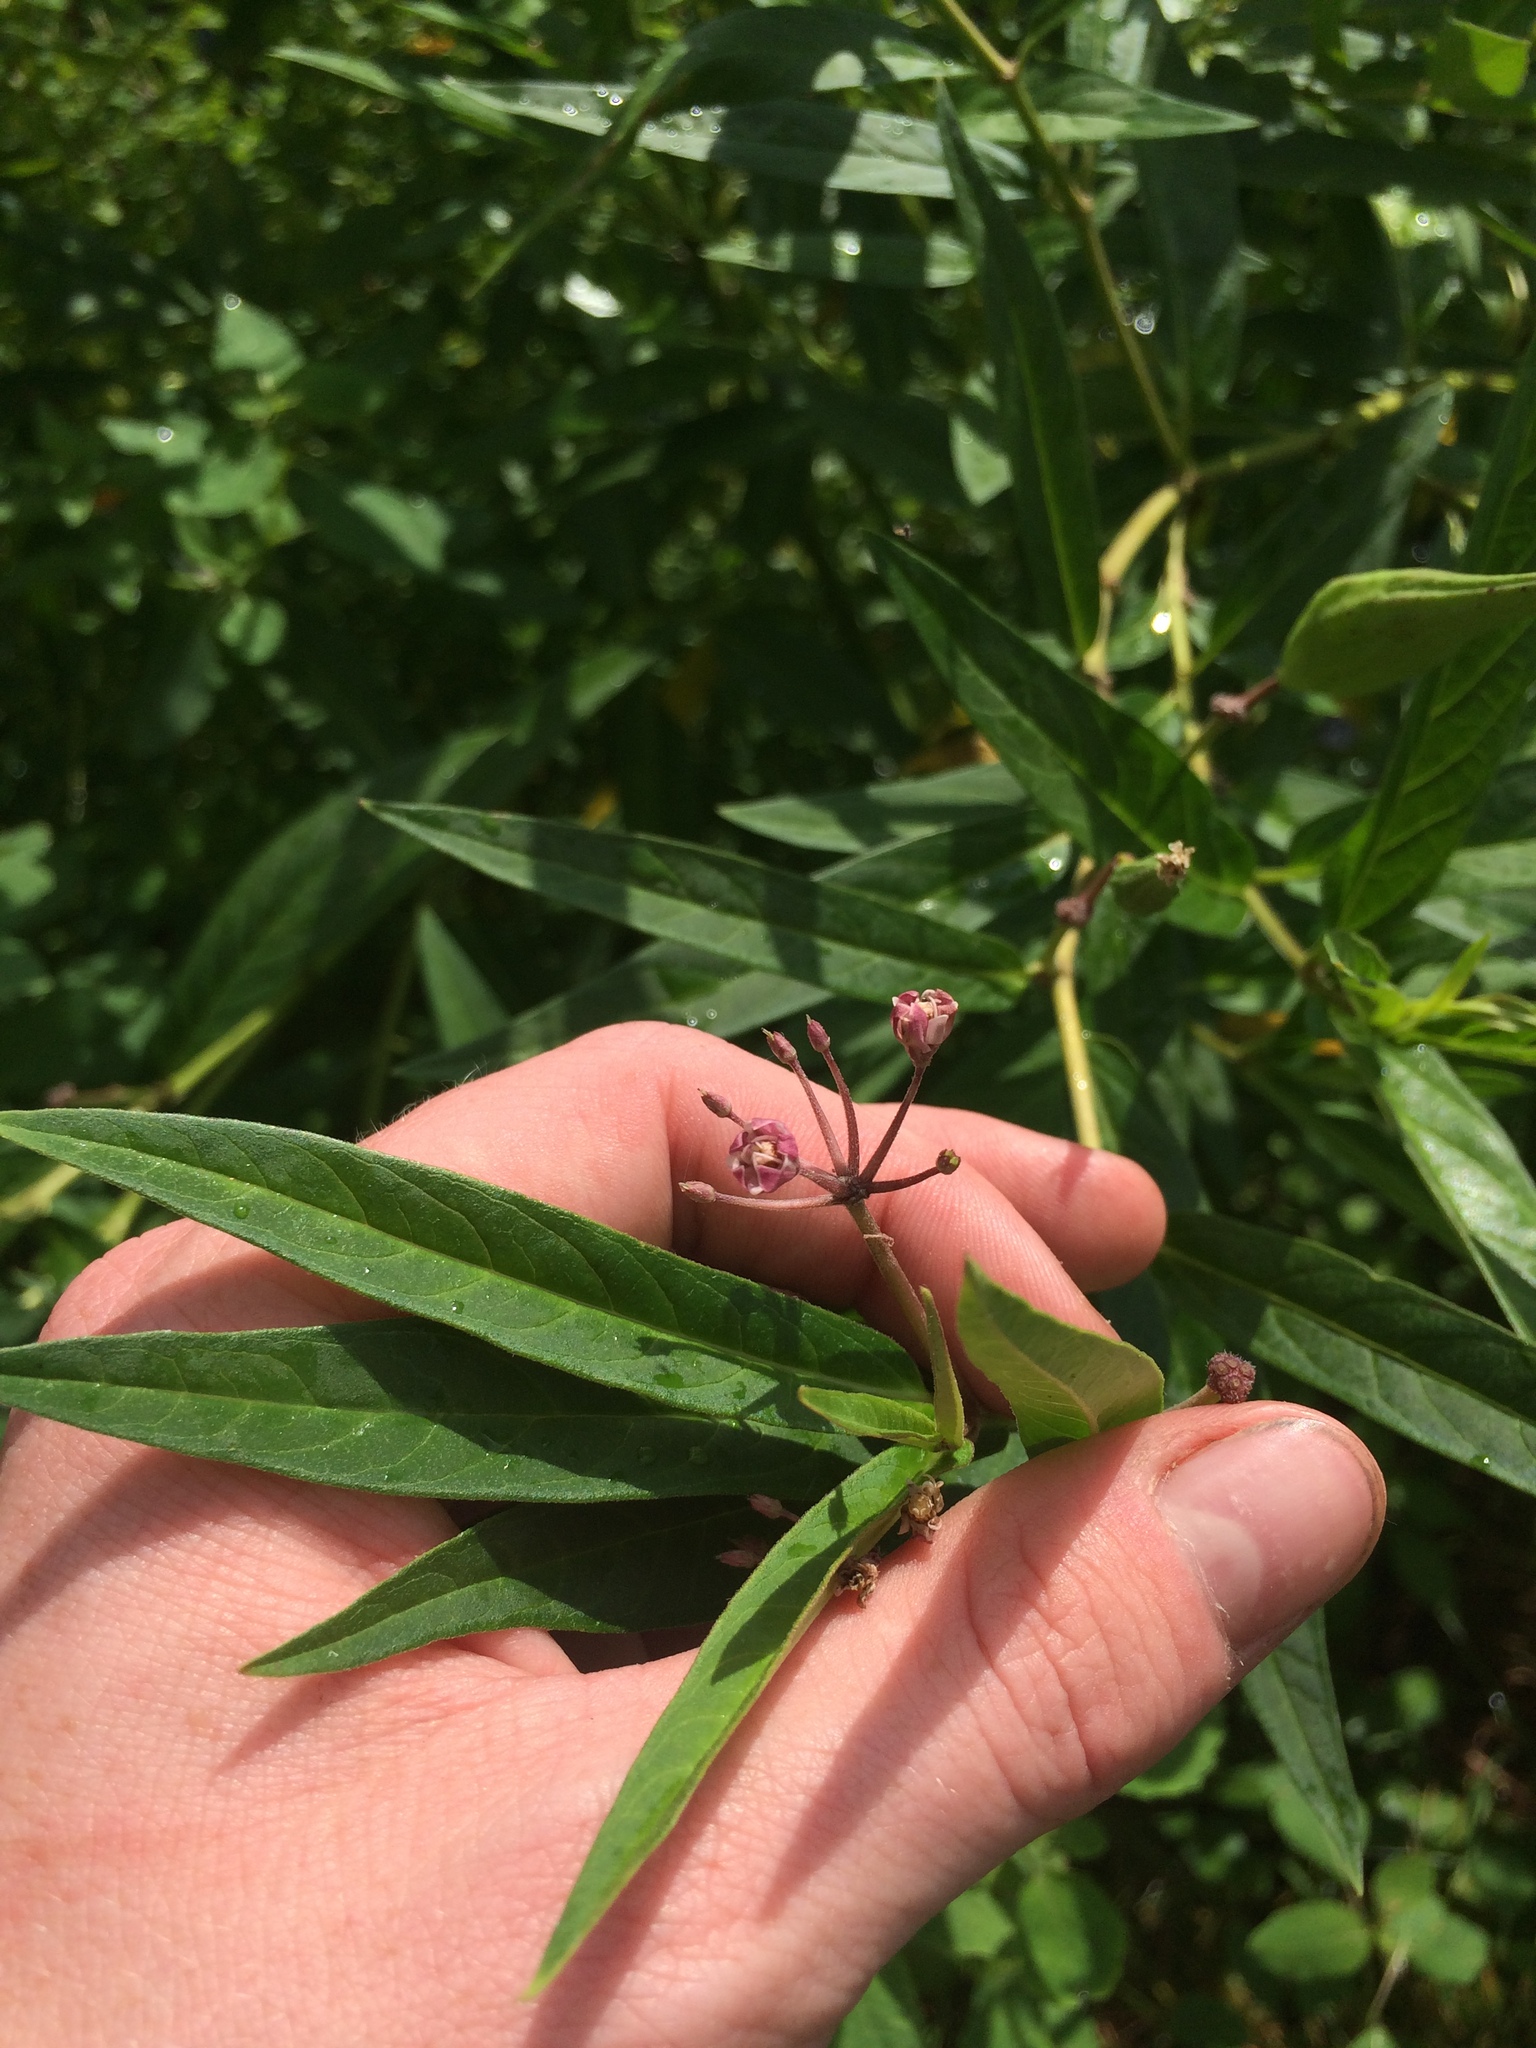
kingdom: Plantae
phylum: Tracheophyta
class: Magnoliopsida
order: Gentianales
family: Apocynaceae
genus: Asclepias
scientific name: Asclepias incarnata
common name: Swamp milkweed
